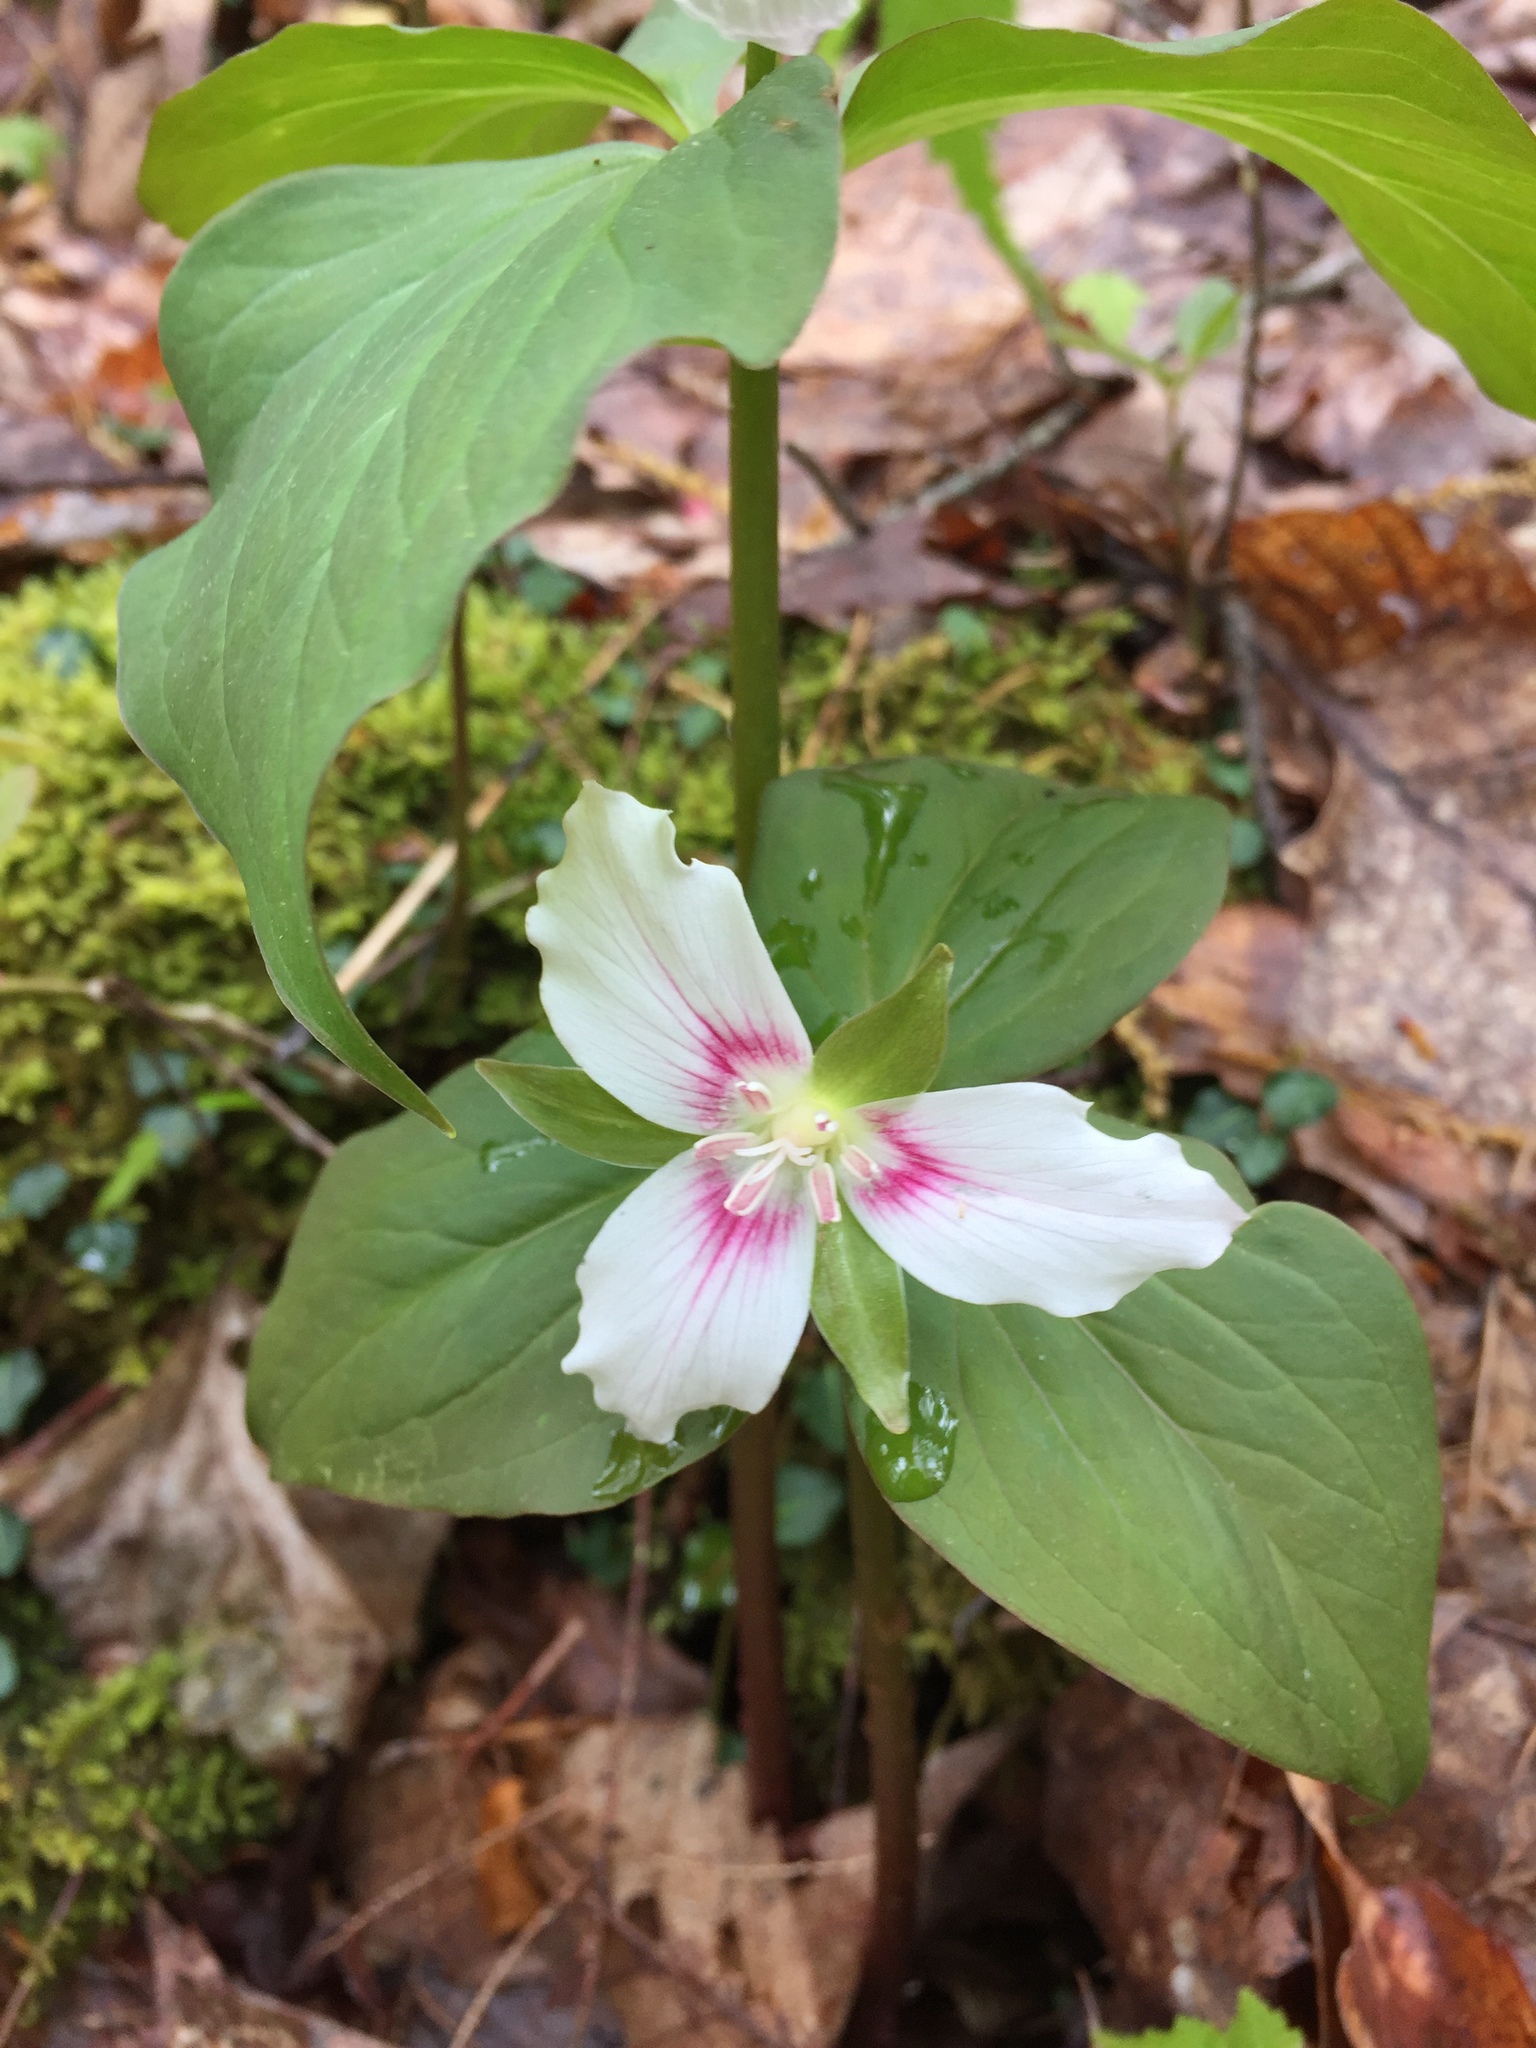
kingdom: Plantae
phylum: Tracheophyta
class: Liliopsida
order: Liliales
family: Melanthiaceae
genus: Trillium
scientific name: Trillium undulatum
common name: Paint trillium
